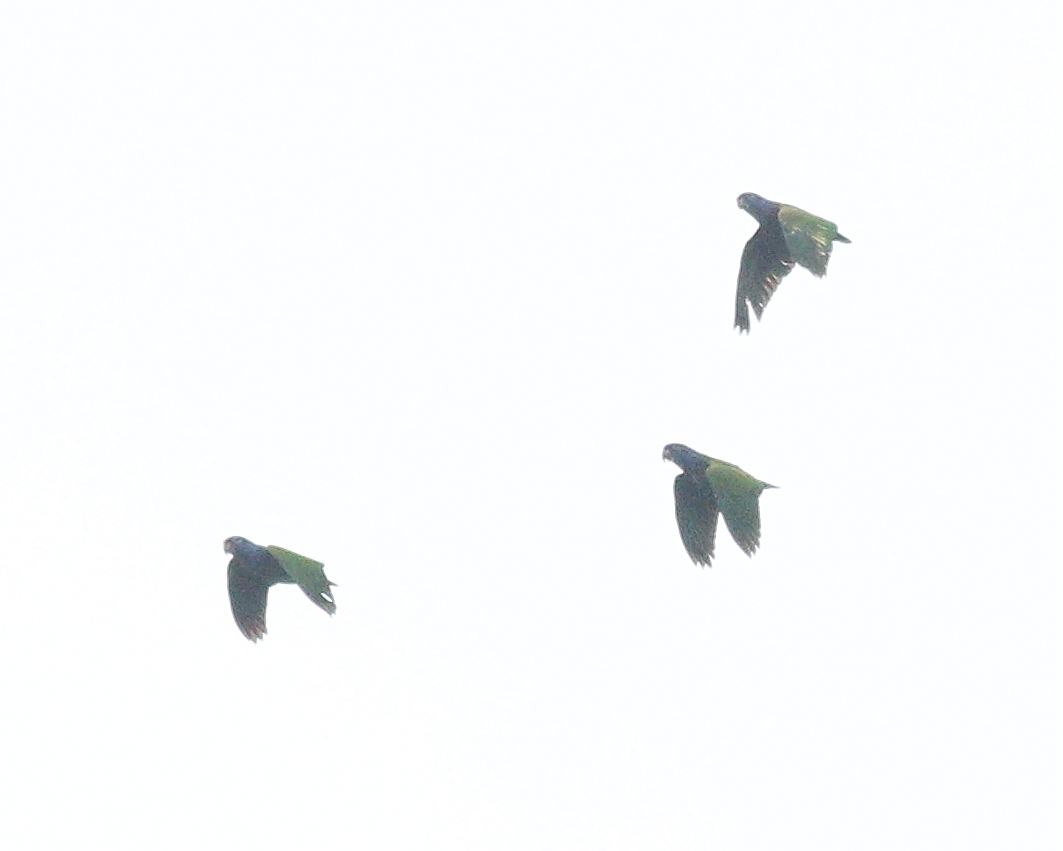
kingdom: Animalia
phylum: Chordata
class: Aves
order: Psittaciformes
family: Psittacidae
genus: Pionus
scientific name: Pionus menstruus
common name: Blue-headed parrot
